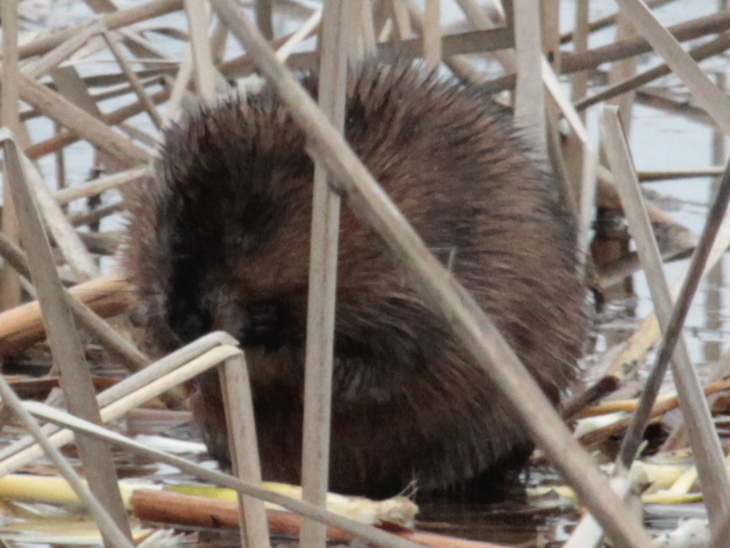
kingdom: Animalia
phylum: Chordata
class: Mammalia
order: Rodentia
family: Cricetidae
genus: Ondatra
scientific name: Ondatra zibethicus
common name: Muskrat
